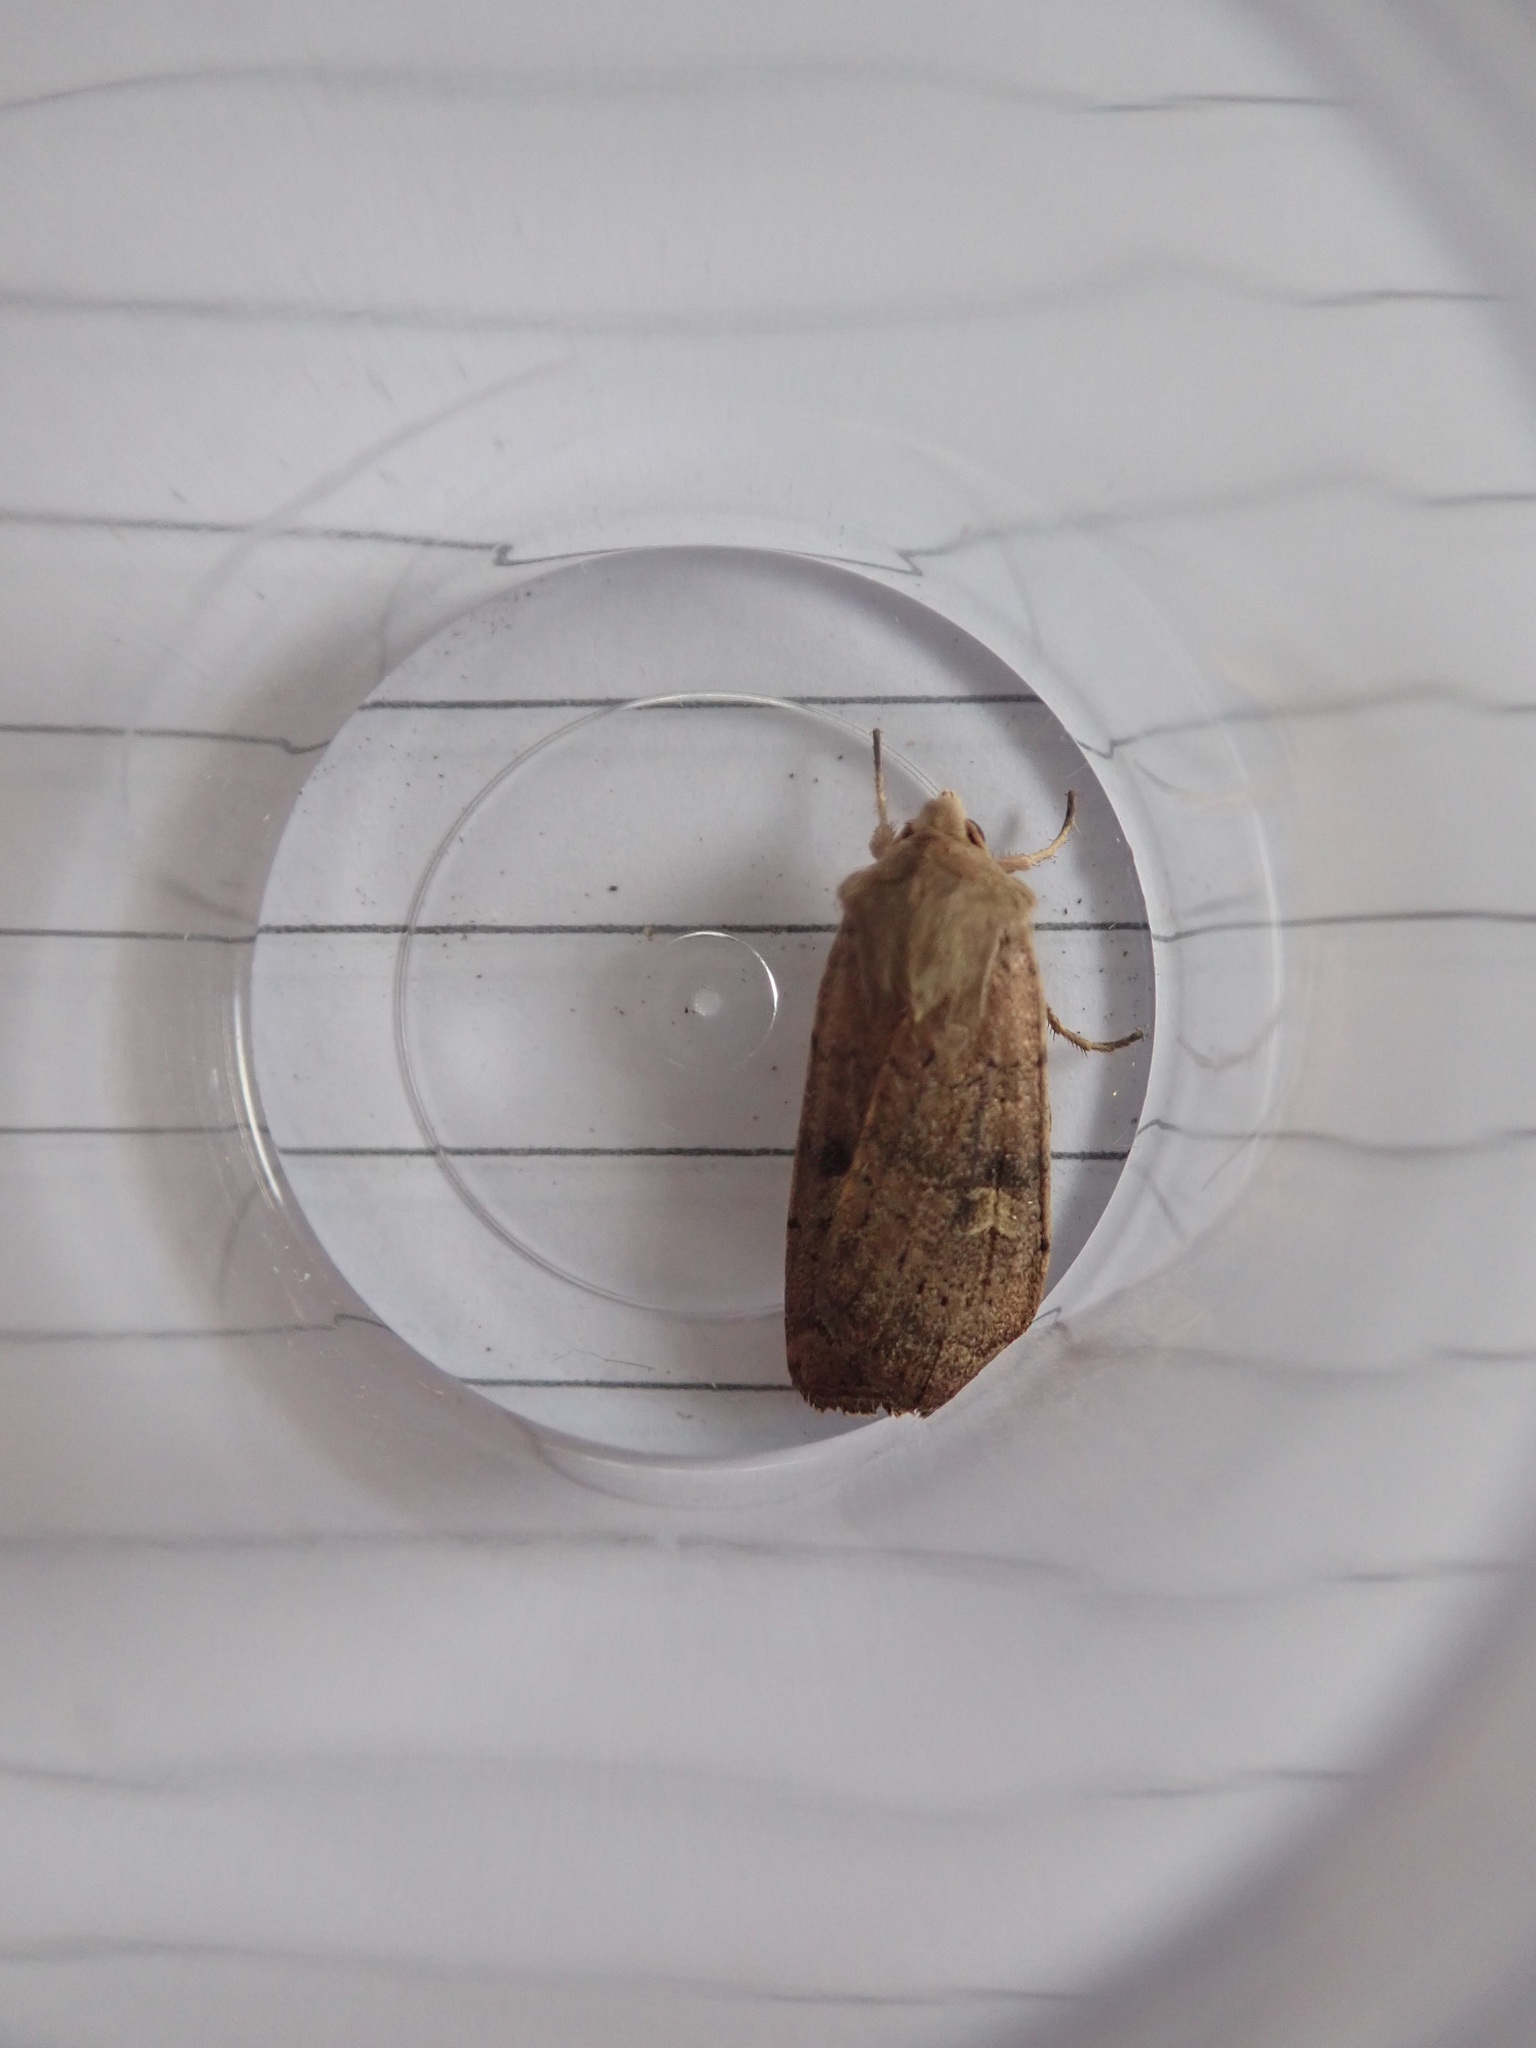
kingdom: Animalia
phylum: Arthropoda
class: Insecta
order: Lepidoptera
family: Noctuidae
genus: Xestia
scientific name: Xestia xanthographa
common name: Square-spot rustic
